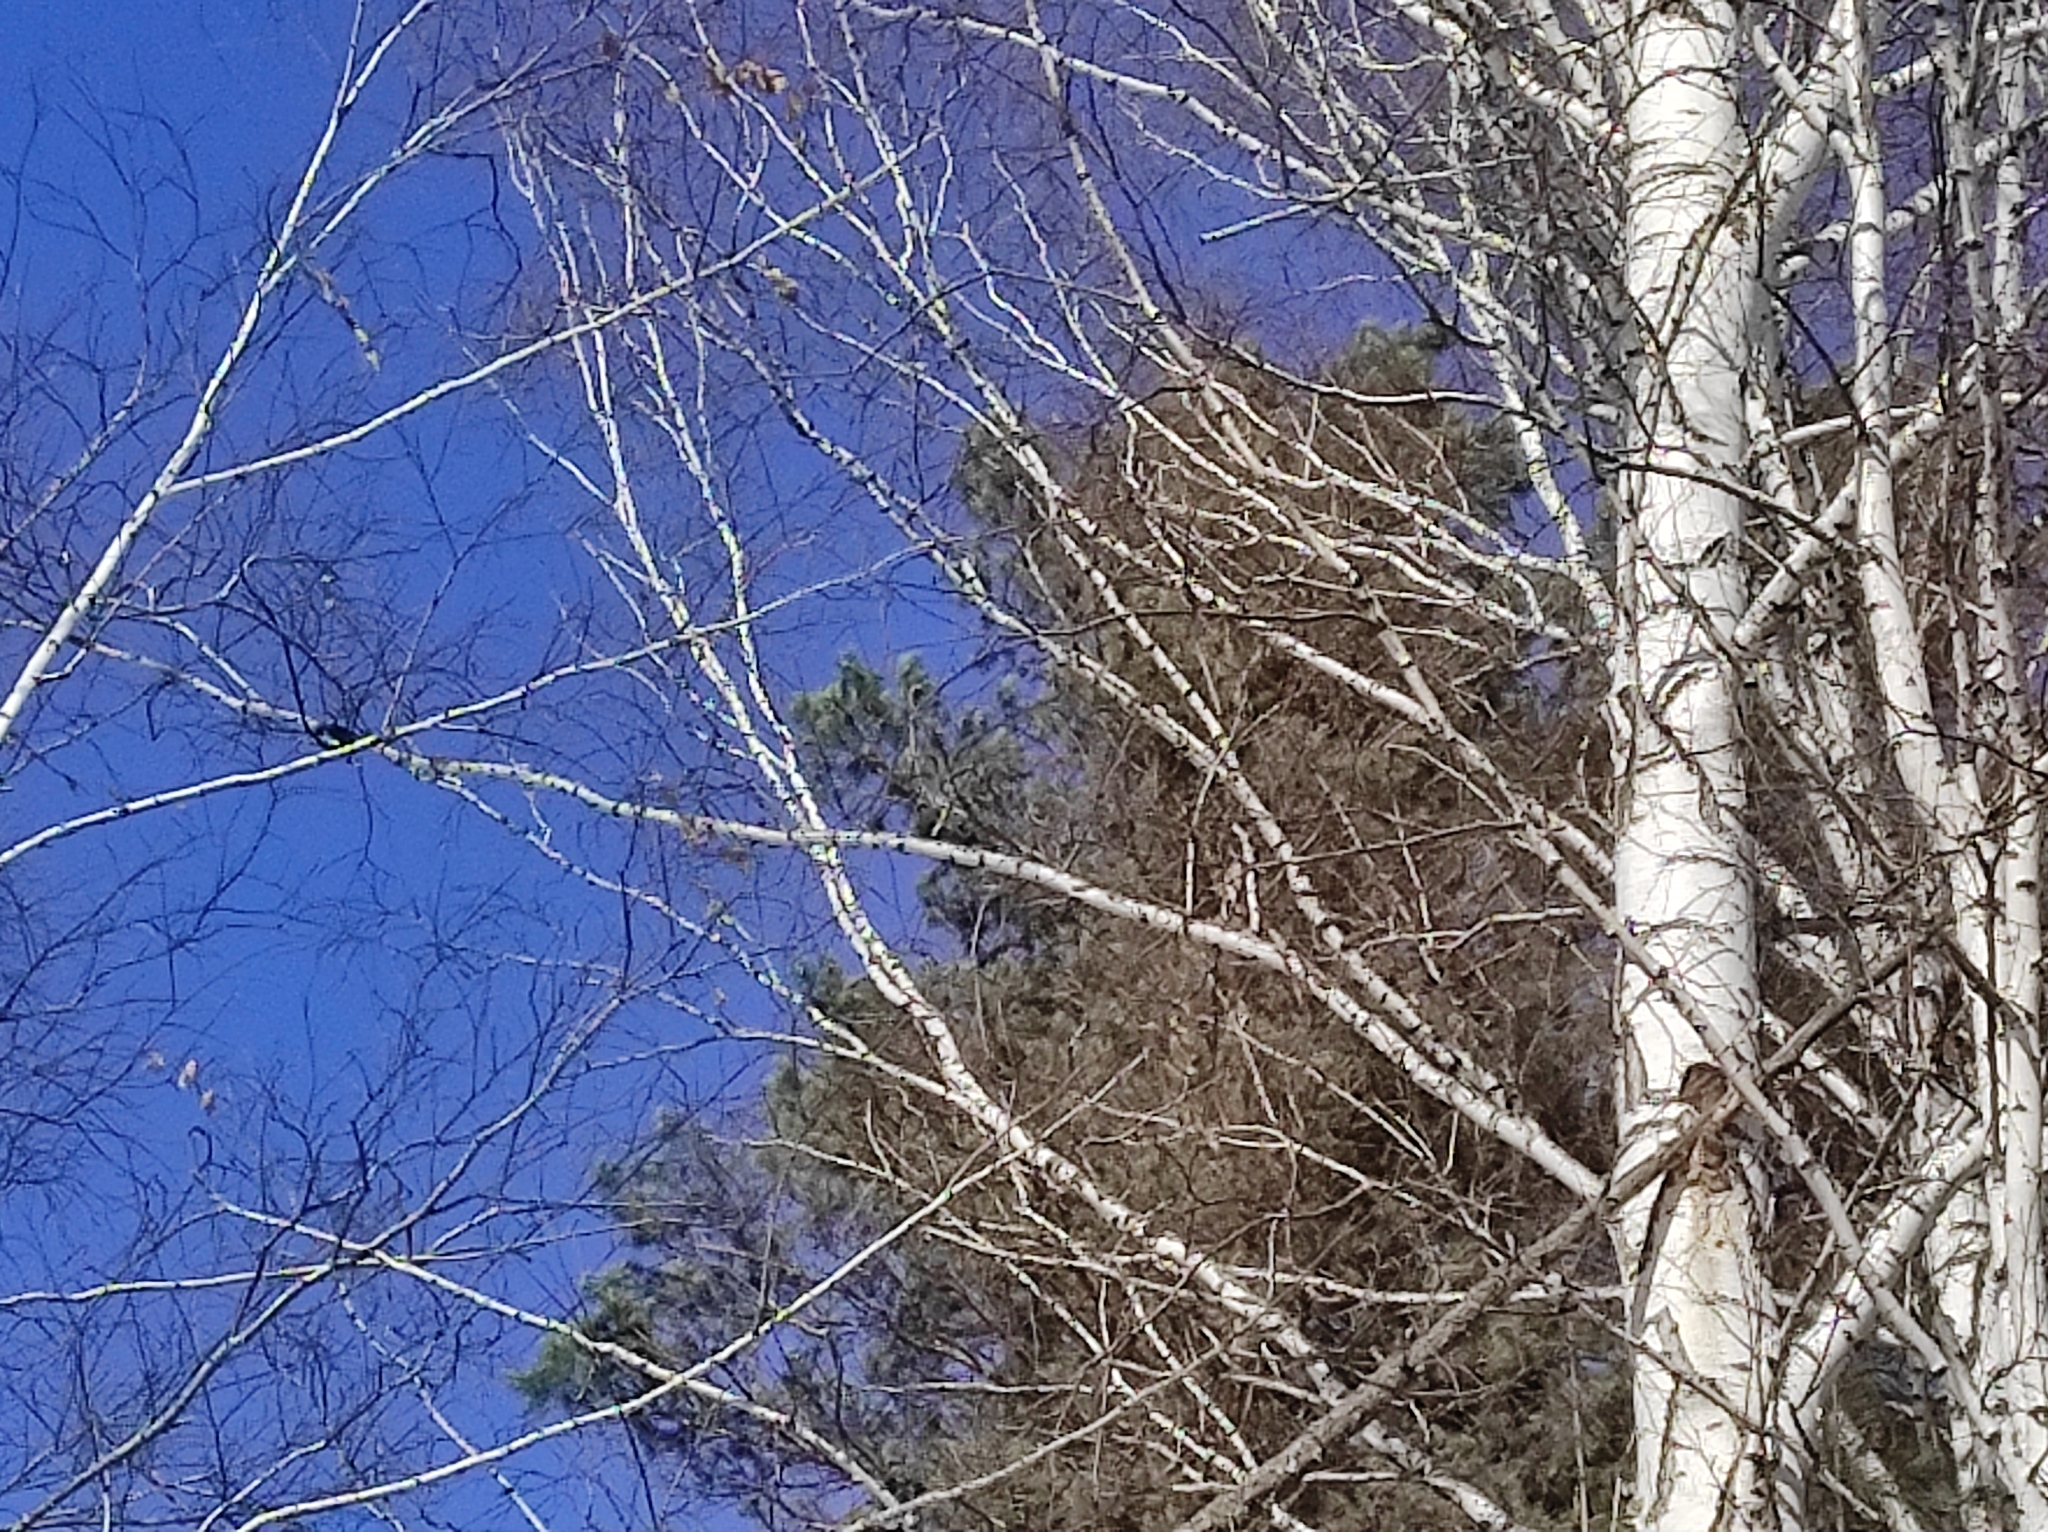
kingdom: Plantae
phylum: Tracheophyta
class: Pinopsida
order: Pinales
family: Pinaceae
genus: Pinus
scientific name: Pinus sylvestris
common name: Scots pine
